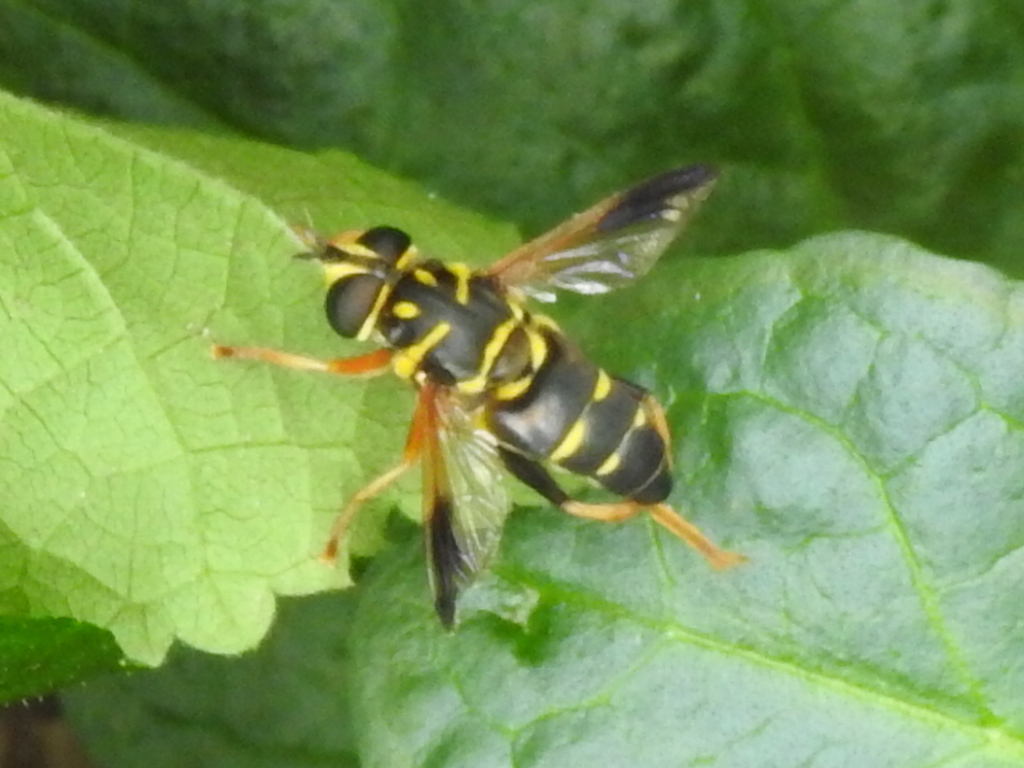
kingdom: Animalia
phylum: Arthropoda
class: Insecta
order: Diptera
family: Syrphidae
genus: Meromacrus
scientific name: Meromacrus acutus
